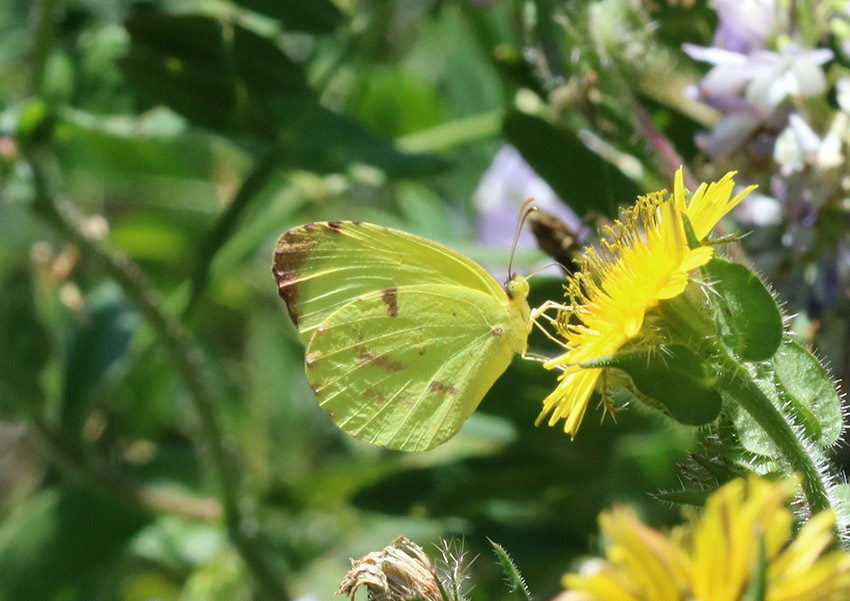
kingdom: Animalia
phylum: Arthropoda
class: Insecta
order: Lepidoptera
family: Pieridae
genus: Teriocolias
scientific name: Teriocolias
